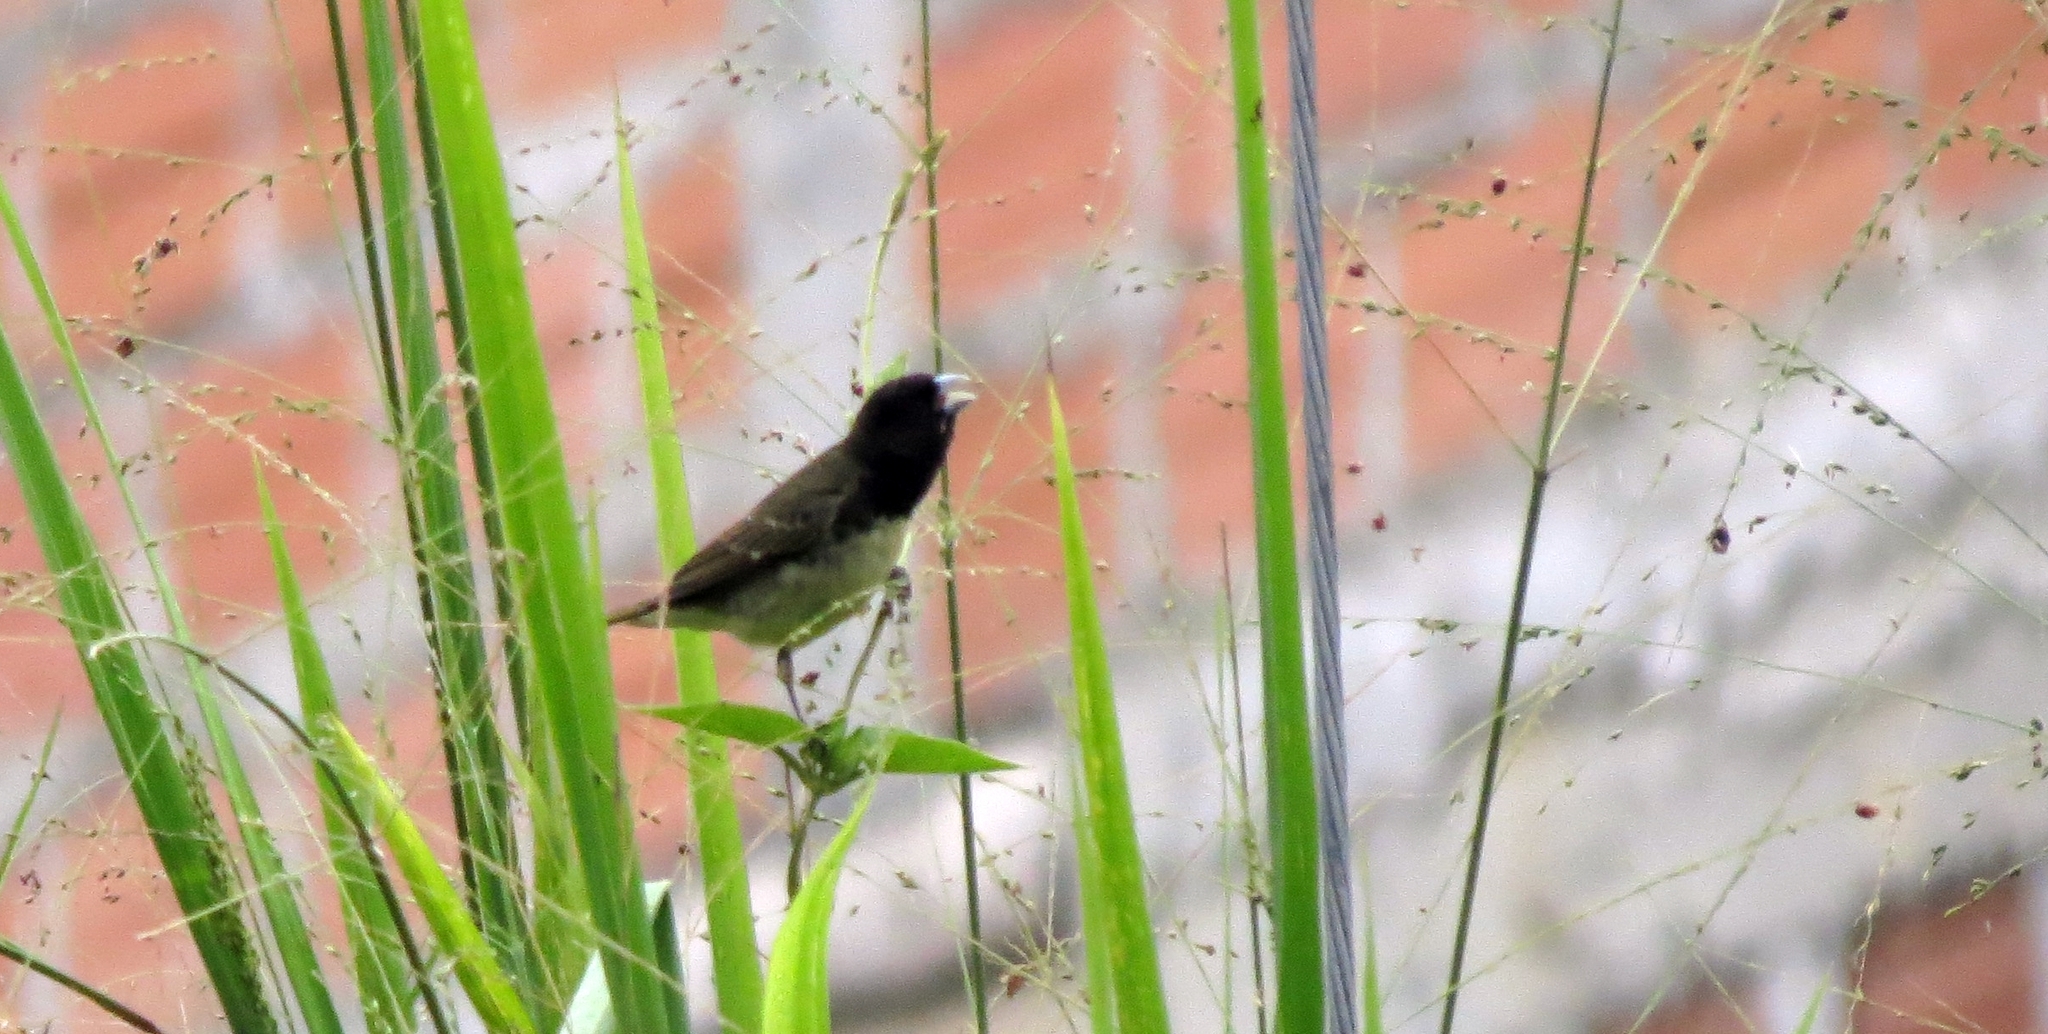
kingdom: Animalia
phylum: Chordata
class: Aves
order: Passeriformes
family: Thraupidae
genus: Sporophila
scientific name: Sporophila nigricollis
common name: Yellow-bellied seedeater
